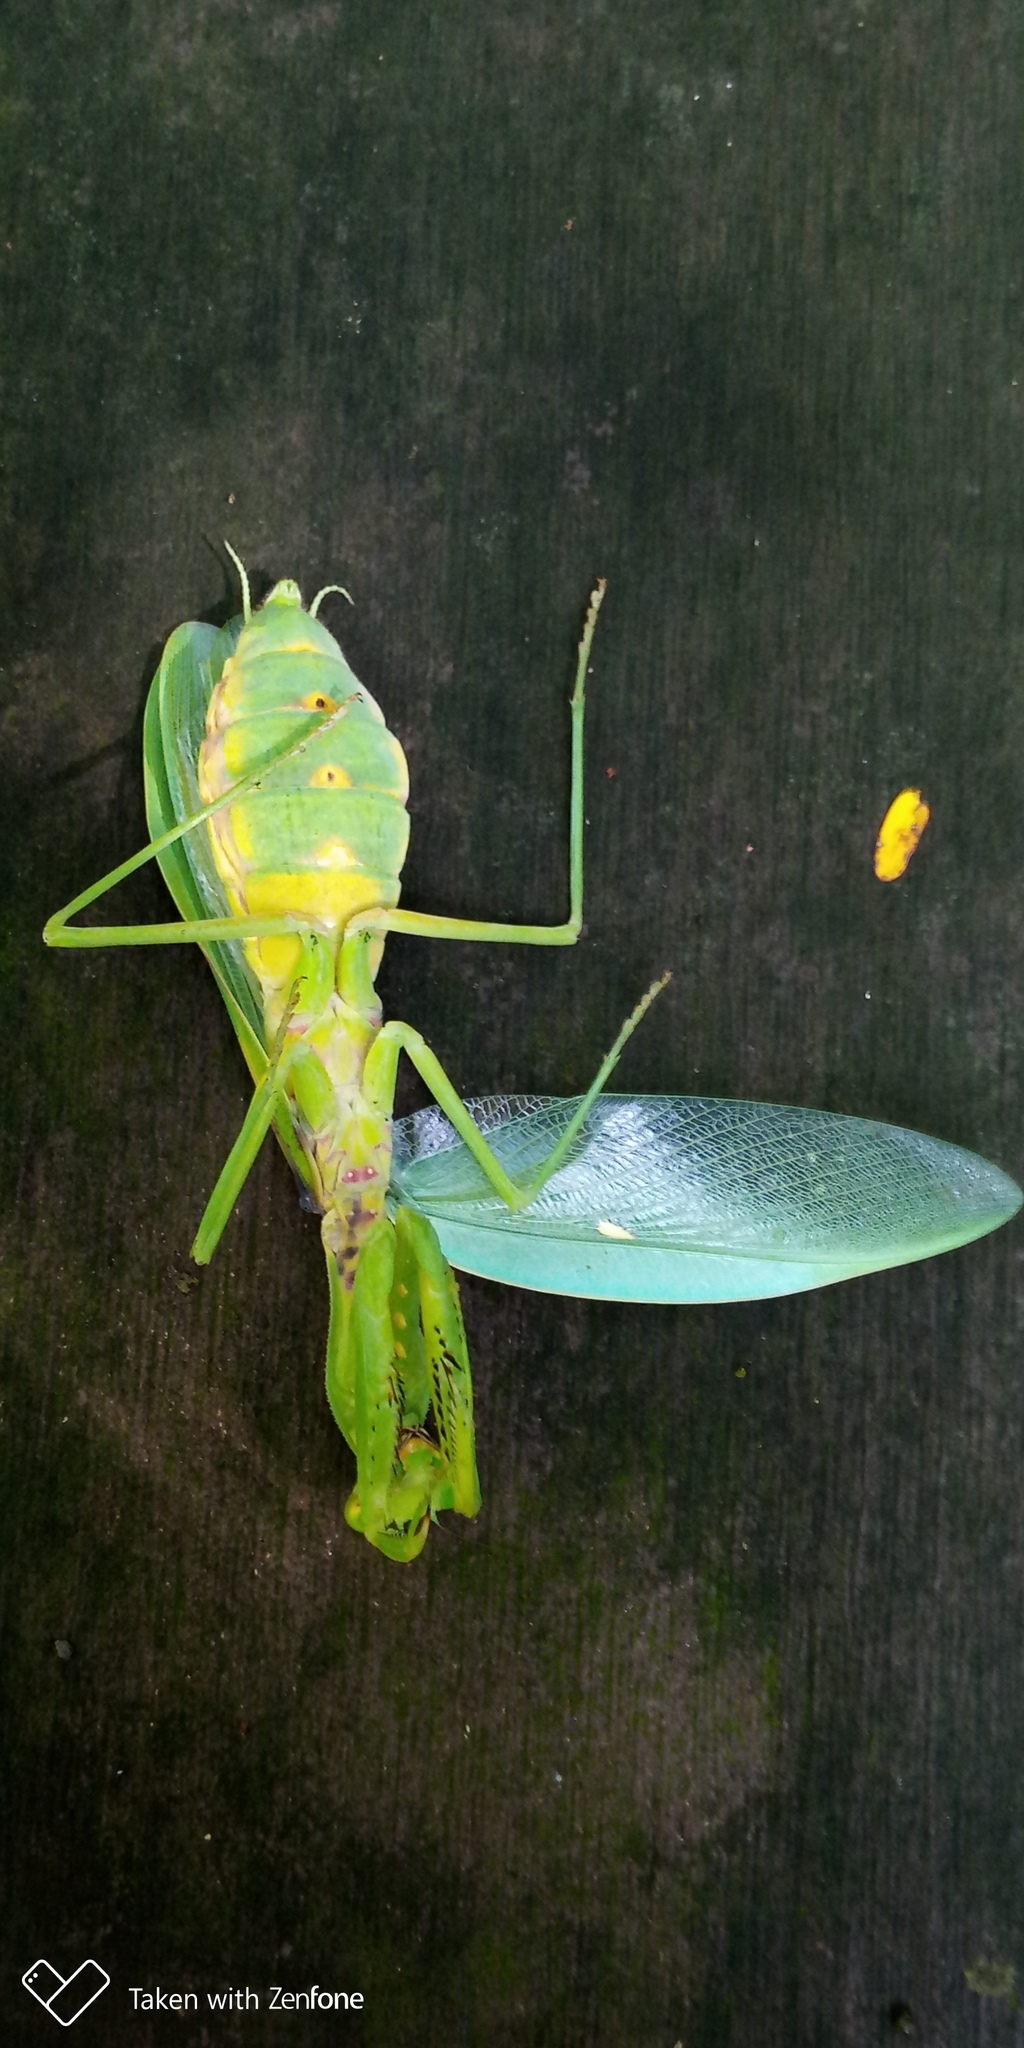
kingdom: Animalia
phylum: Arthropoda
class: Insecta
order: Mantodea
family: Mantidae
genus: Hierodula
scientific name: Hierodula patellifera
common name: Asian mantis
